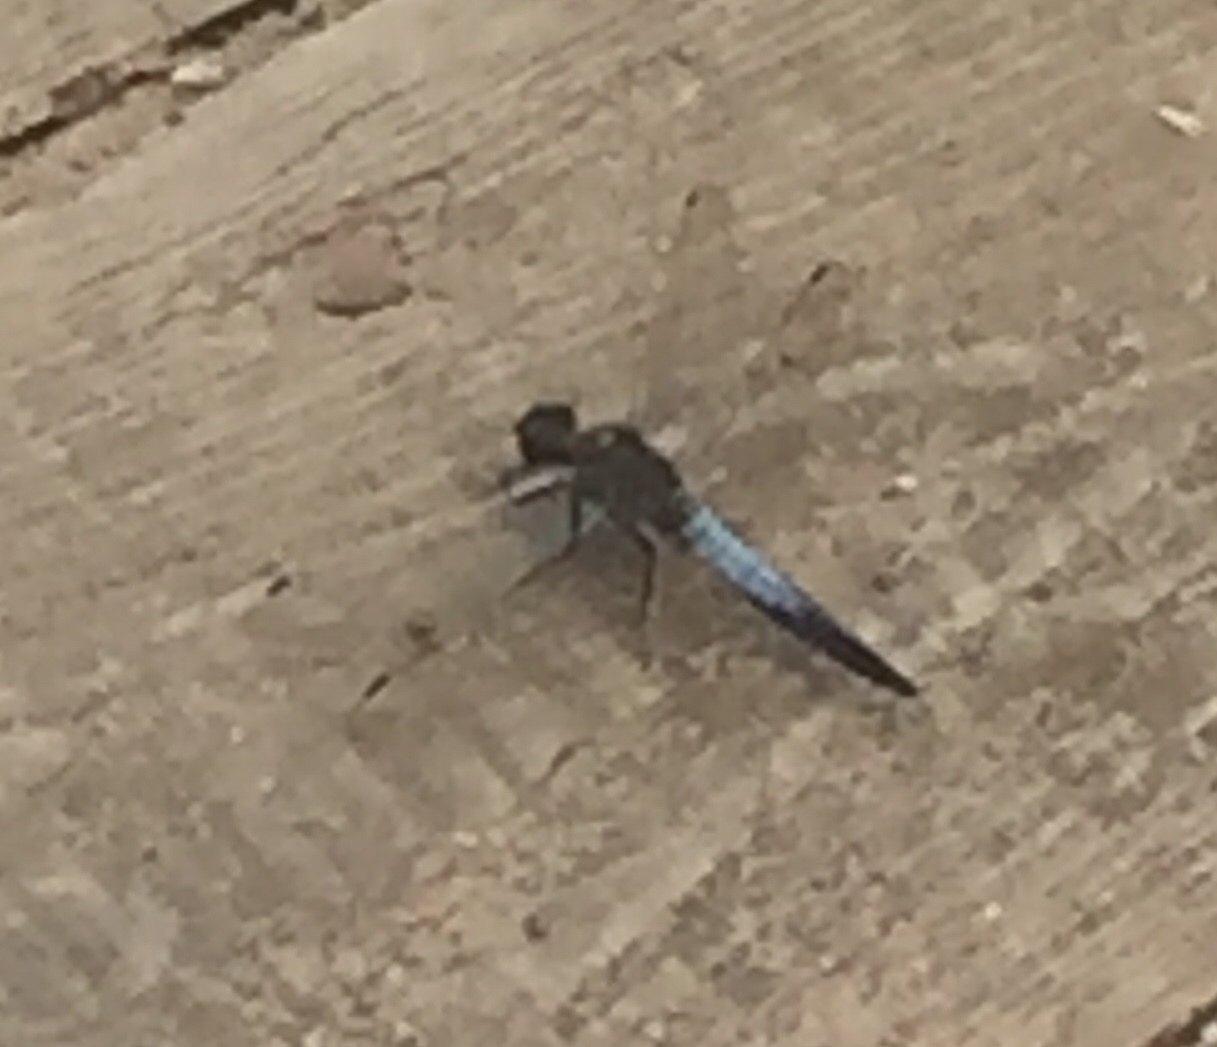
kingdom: Animalia
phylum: Arthropoda
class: Insecta
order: Odonata
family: Libellulidae
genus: Orthetrum
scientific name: Orthetrum cancellatum
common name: Black-tailed skimmer
